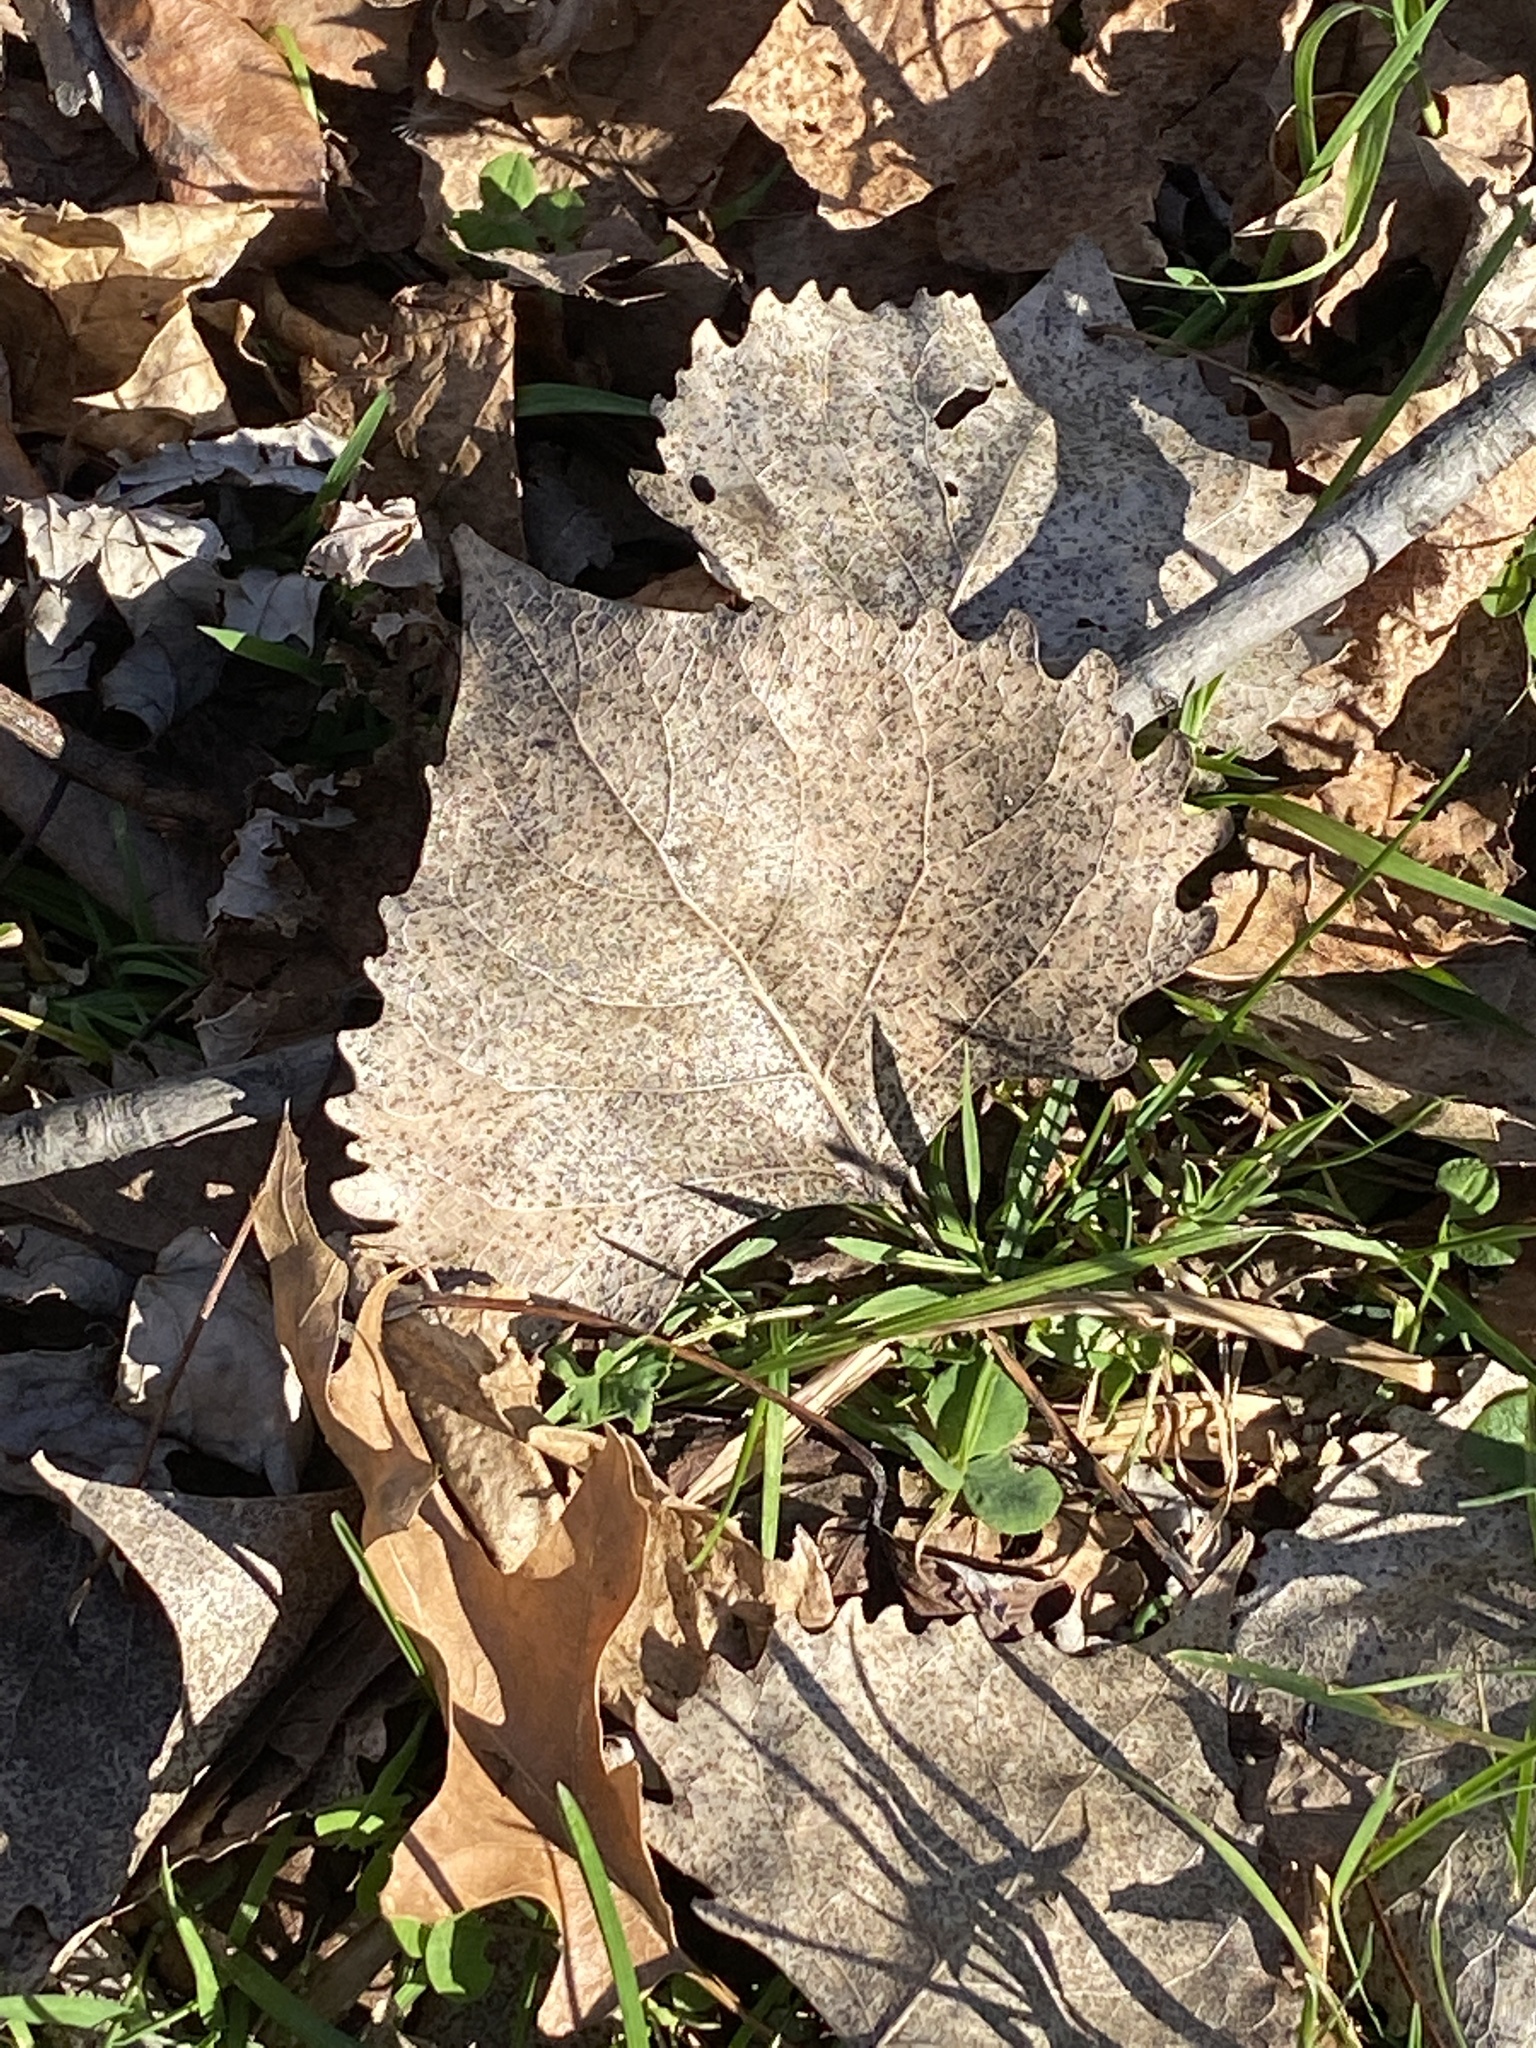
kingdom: Plantae
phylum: Tracheophyta
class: Magnoliopsida
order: Malpighiales
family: Salicaceae
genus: Populus
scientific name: Populus deltoides
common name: Eastern cottonwood
